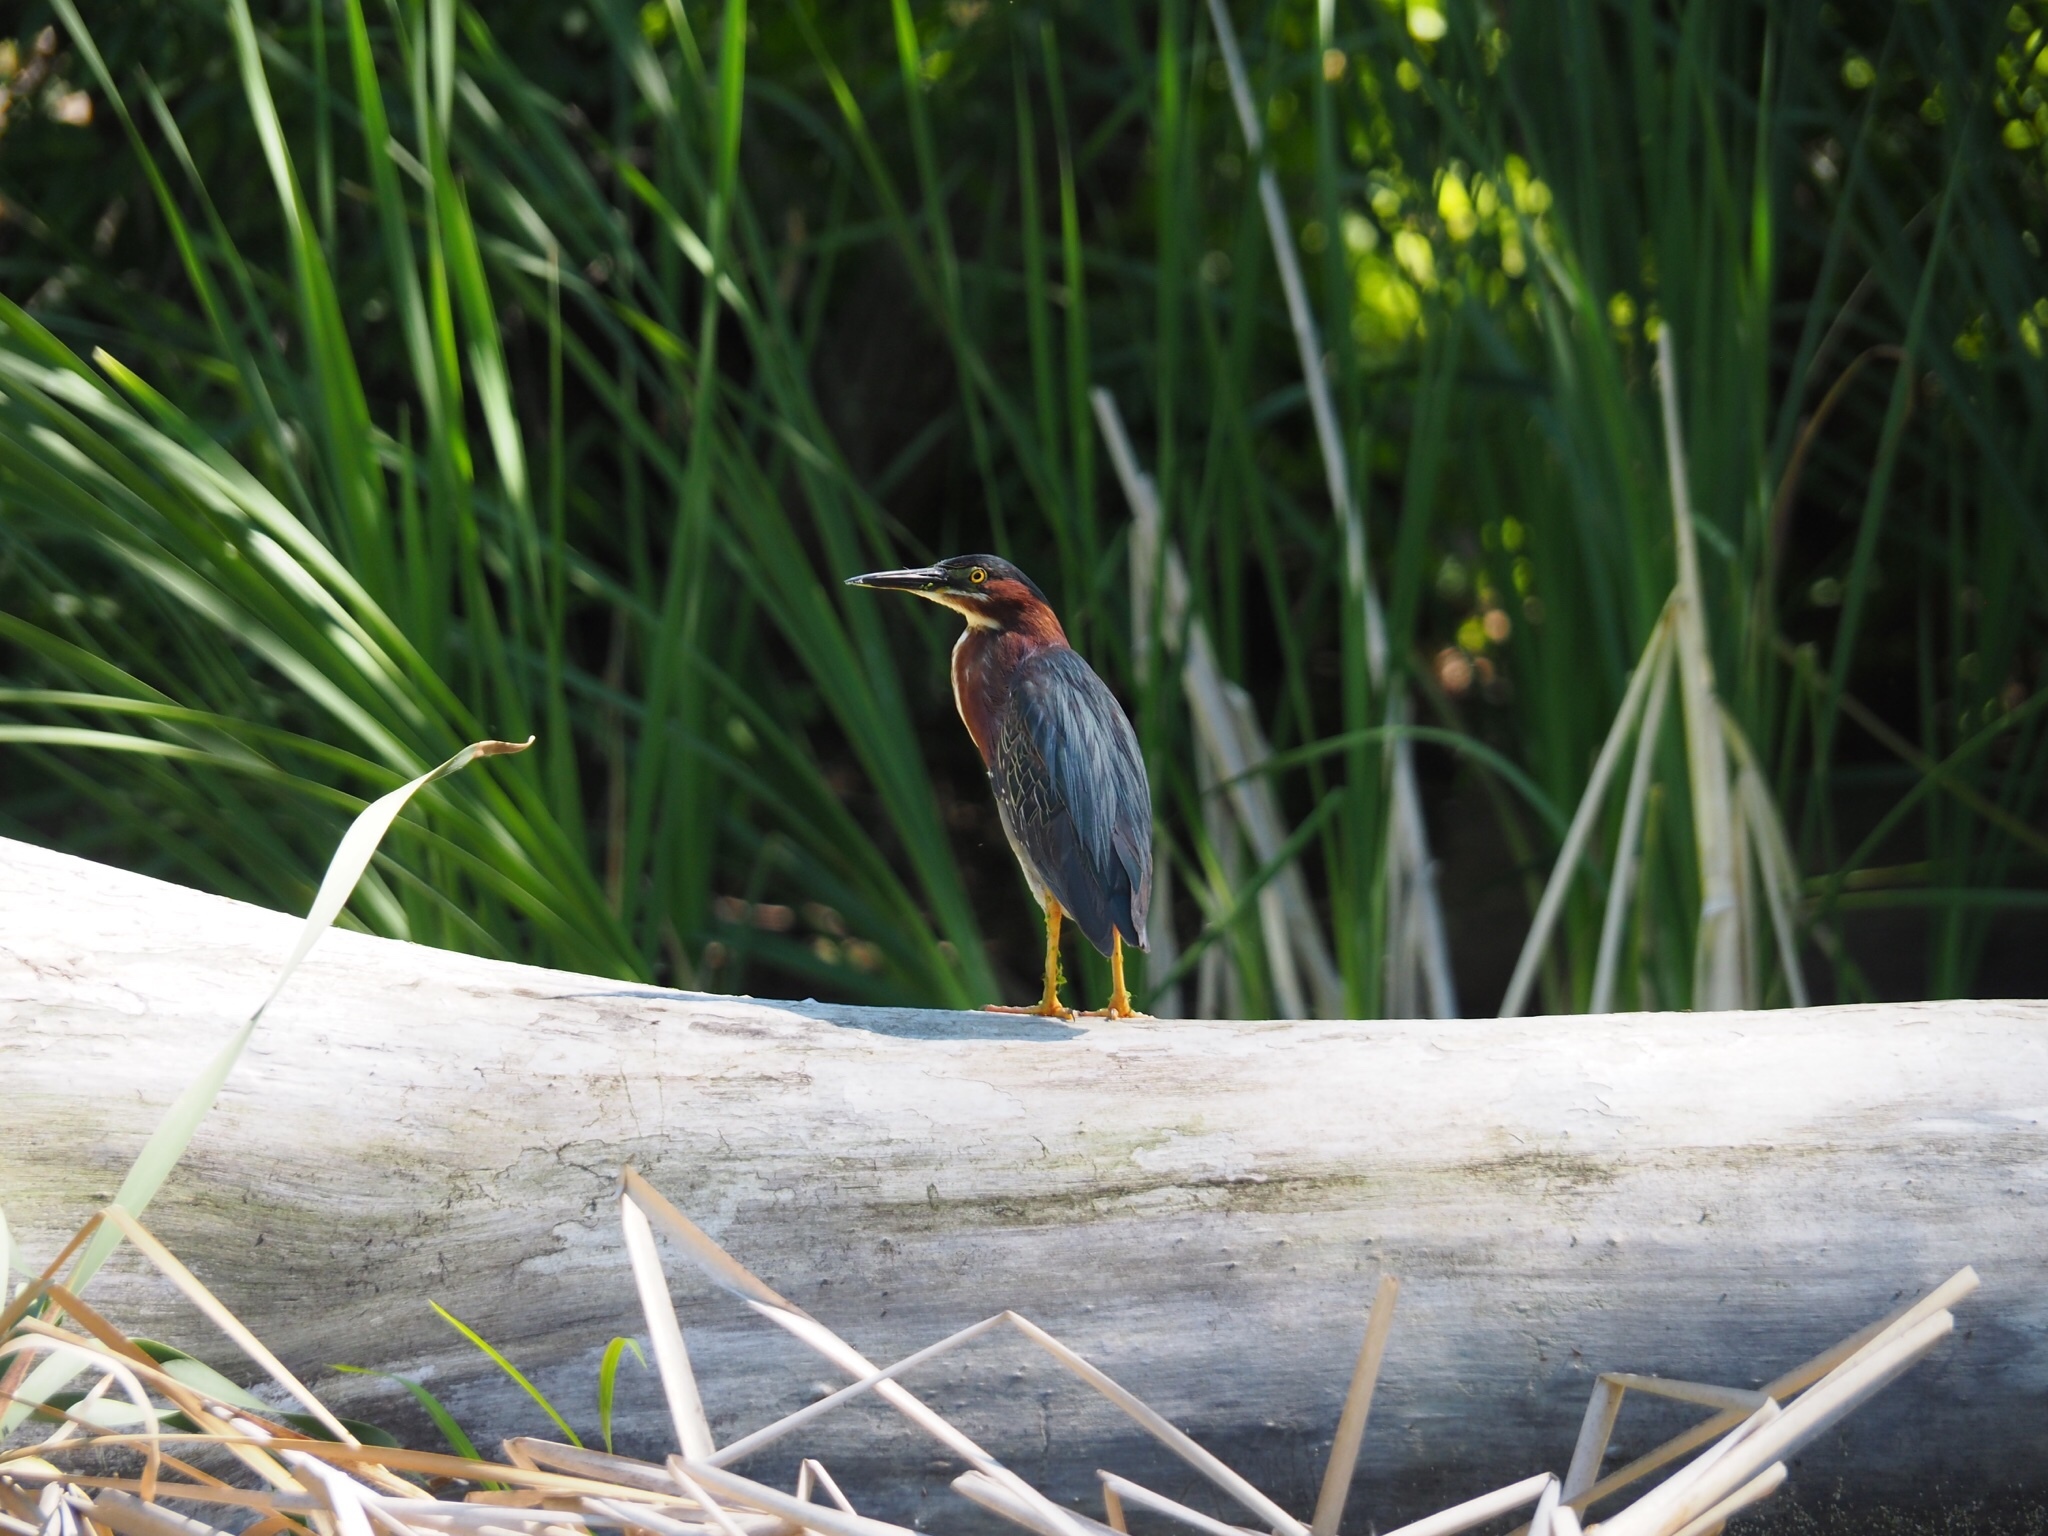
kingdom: Animalia
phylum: Chordata
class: Aves
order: Pelecaniformes
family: Ardeidae
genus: Butorides
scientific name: Butorides virescens
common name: Green heron
